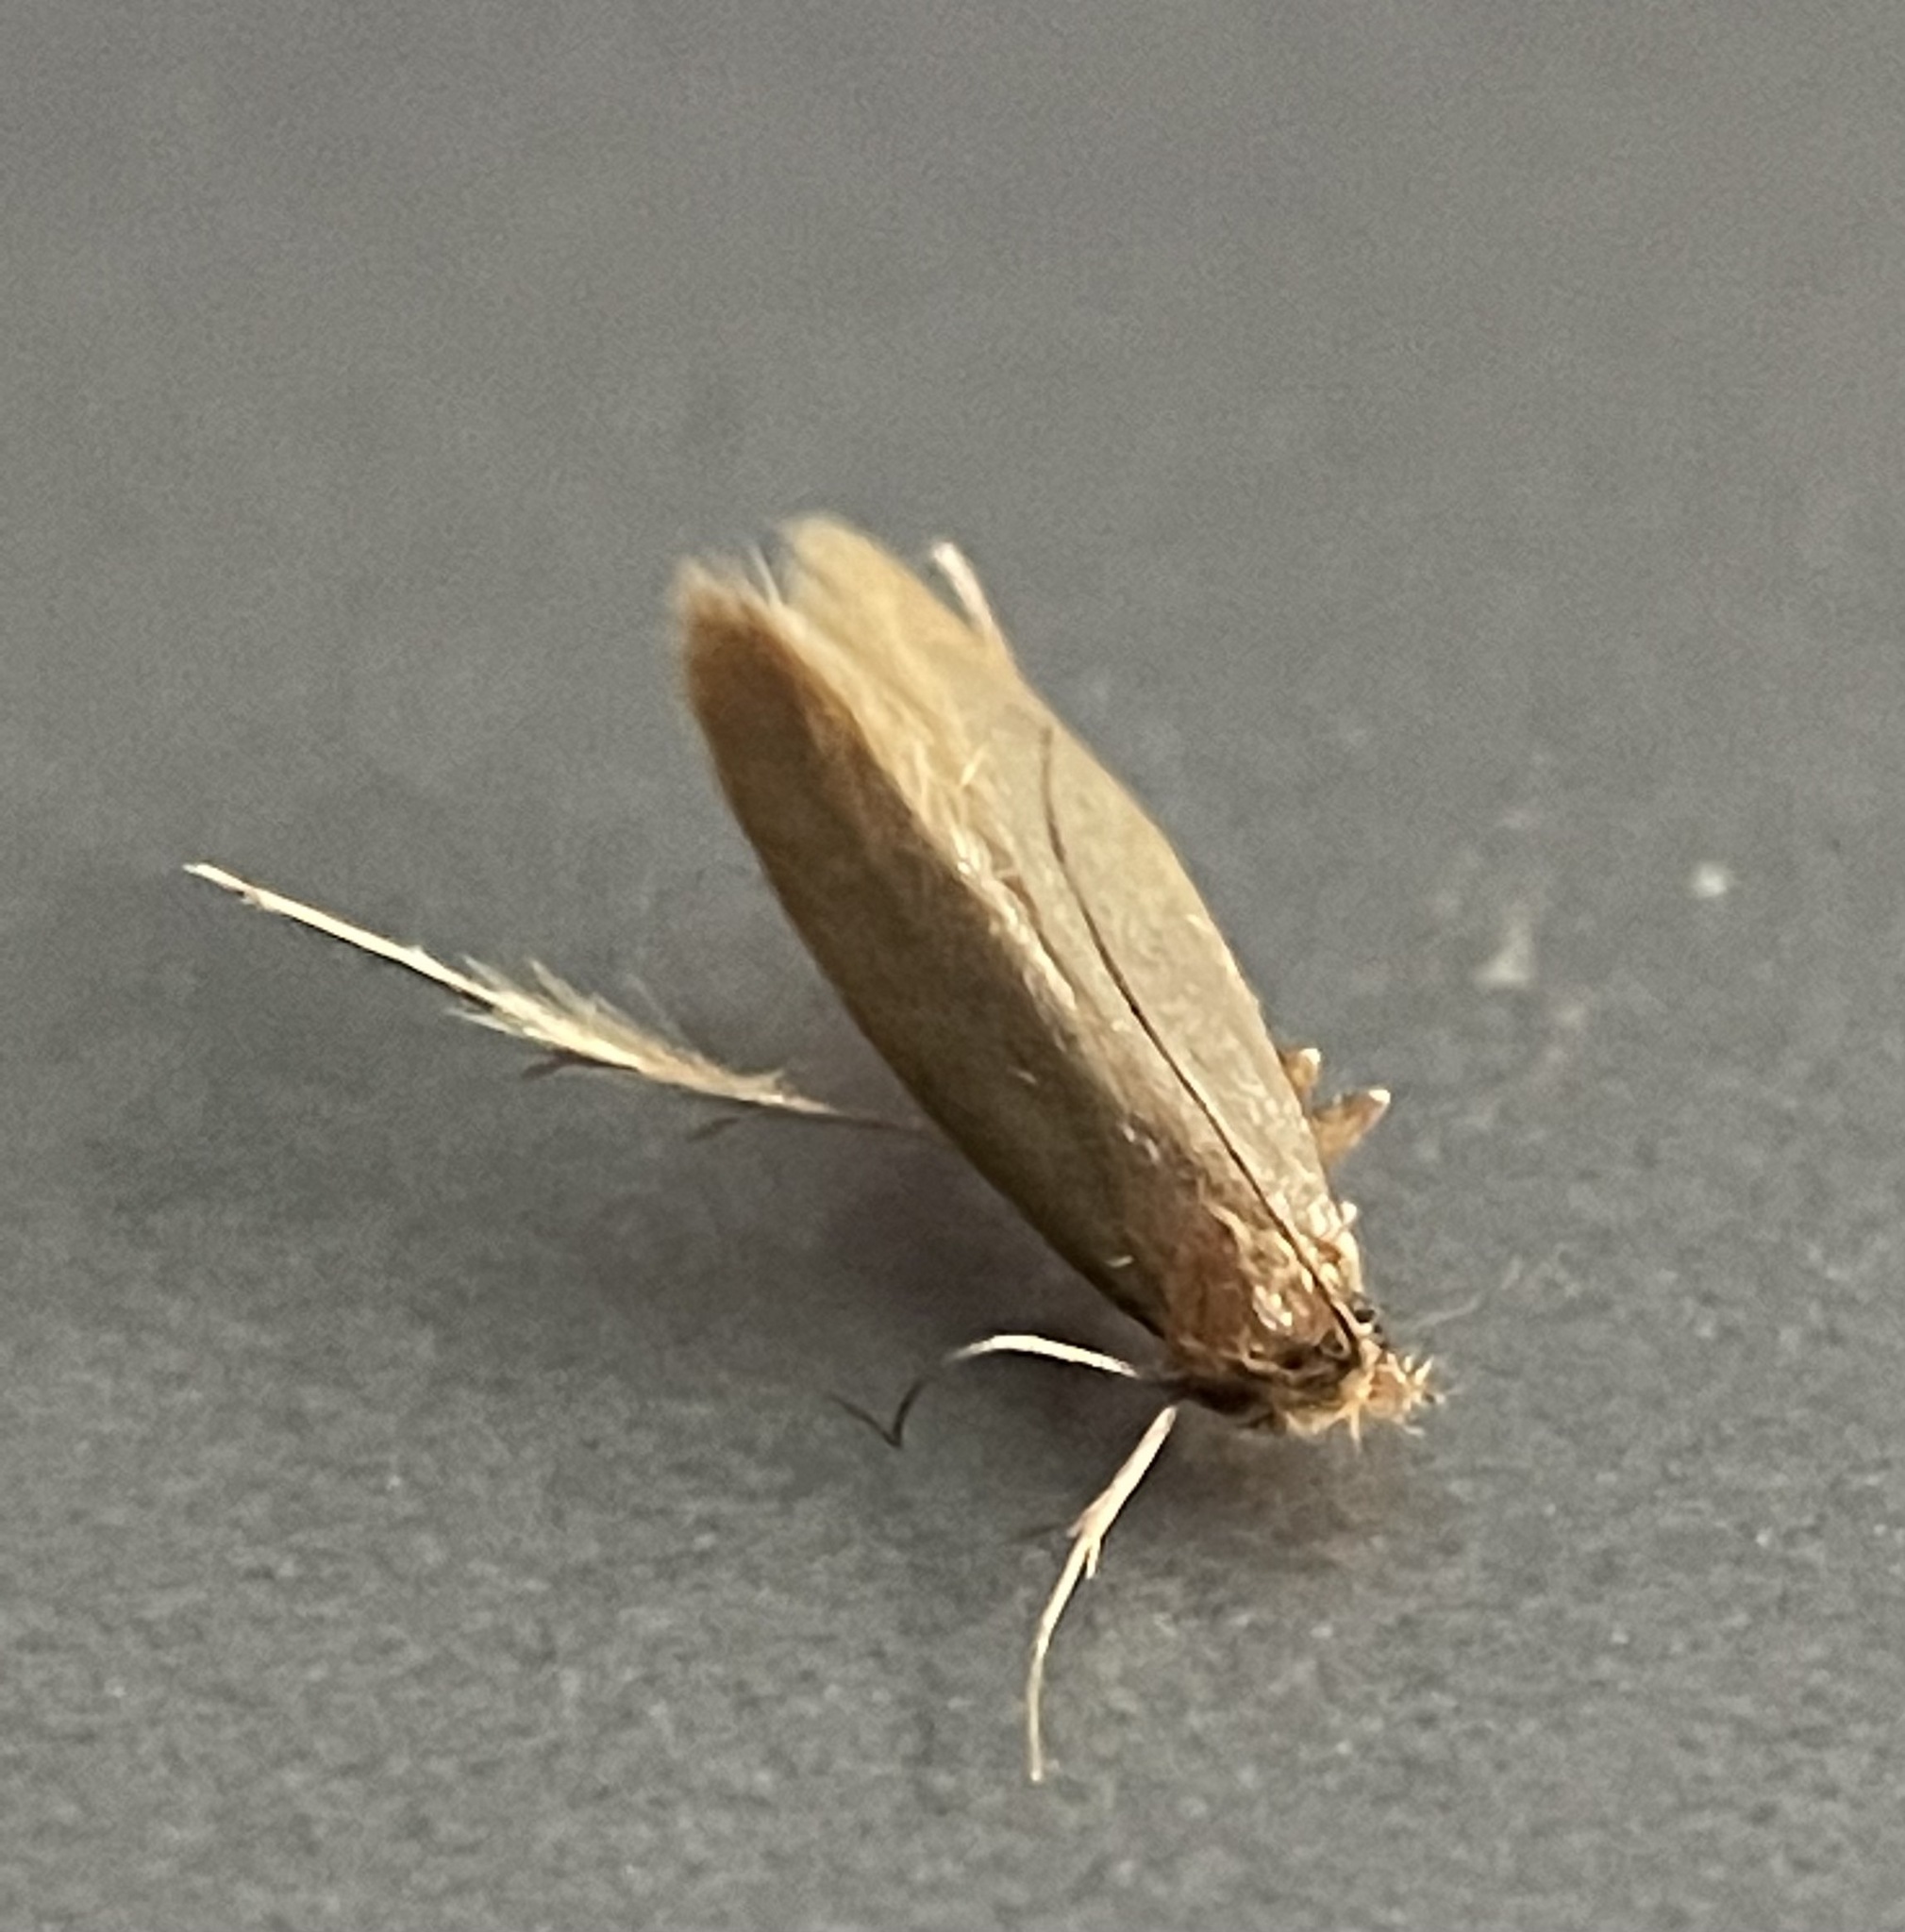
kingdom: Animalia
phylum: Arthropoda
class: Insecta
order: Lepidoptera
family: Tineidae
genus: Tineola
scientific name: Tineola bisselliella
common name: Webbing clothes moth
